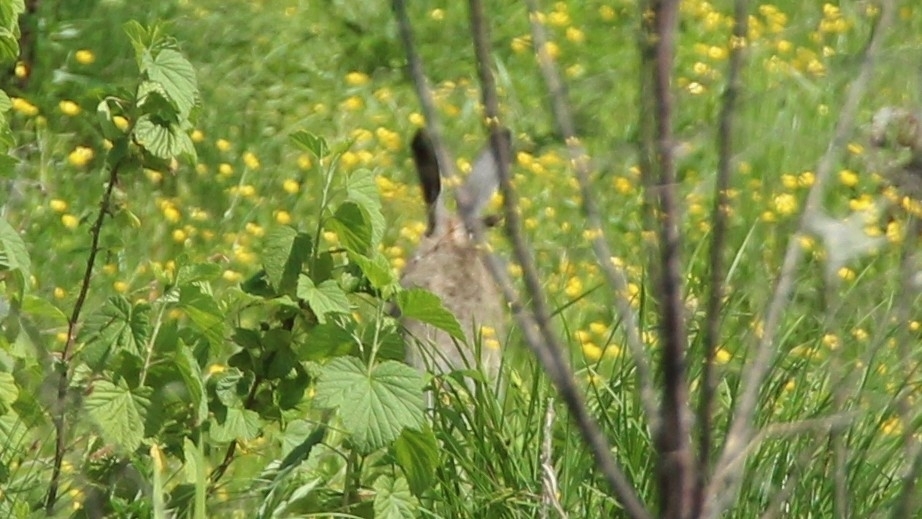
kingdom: Animalia
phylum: Chordata
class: Mammalia
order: Lagomorpha
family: Leporidae
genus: Lepus
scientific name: Lepus europaeus
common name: European hare
